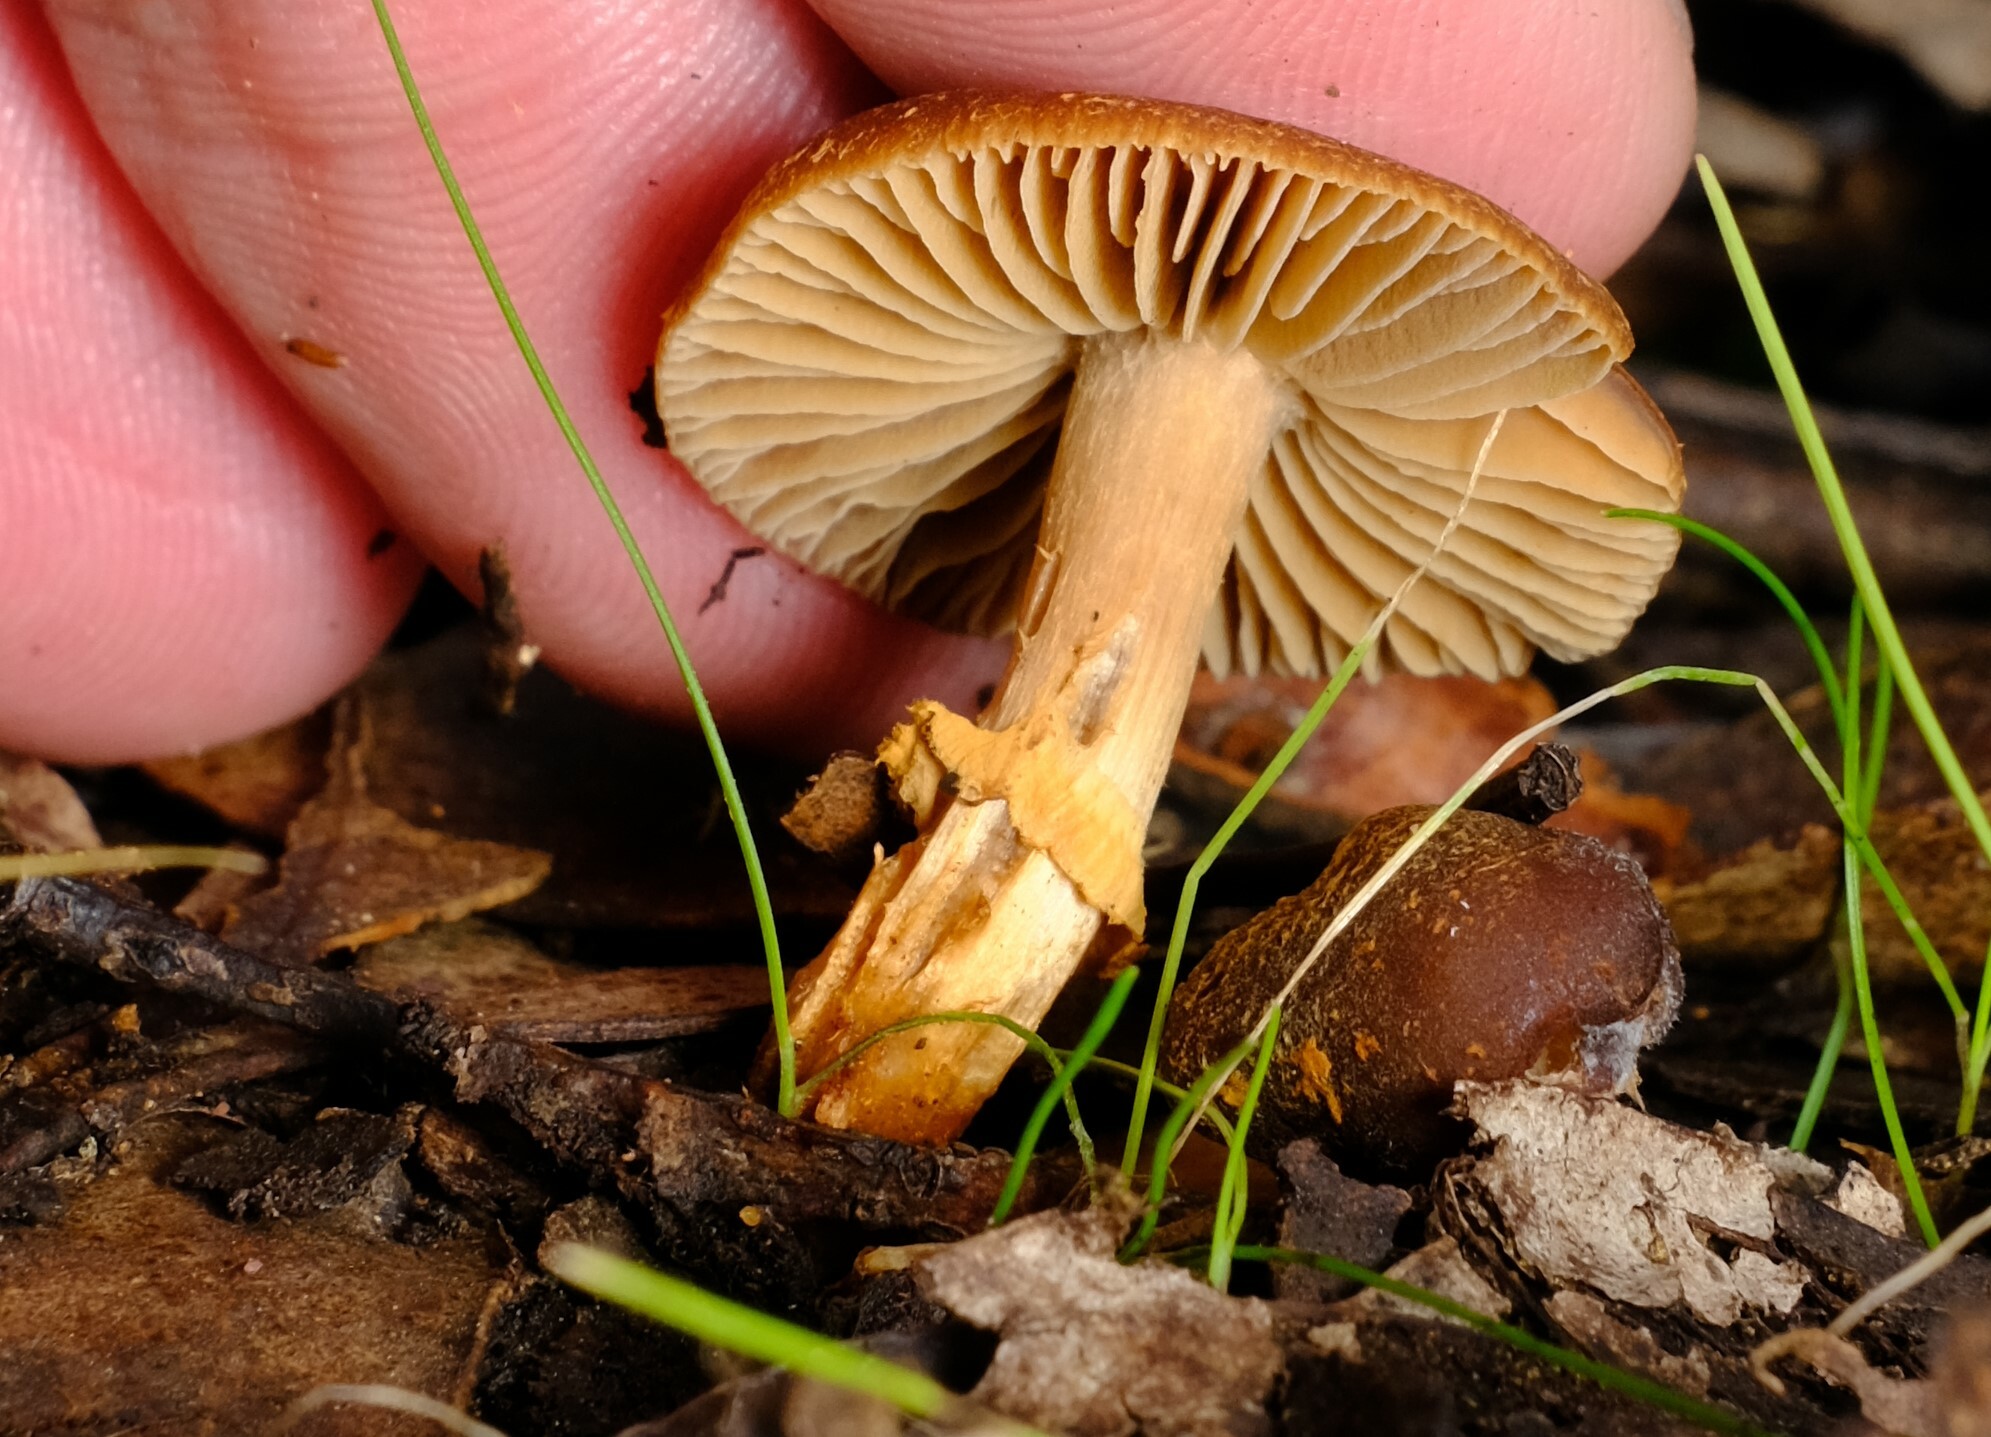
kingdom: Fungi
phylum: Basidiomycota
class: Agaricomycetes
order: Agaricales
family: Bolbitiaceae
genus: Descolea
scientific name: Descolea recedens
